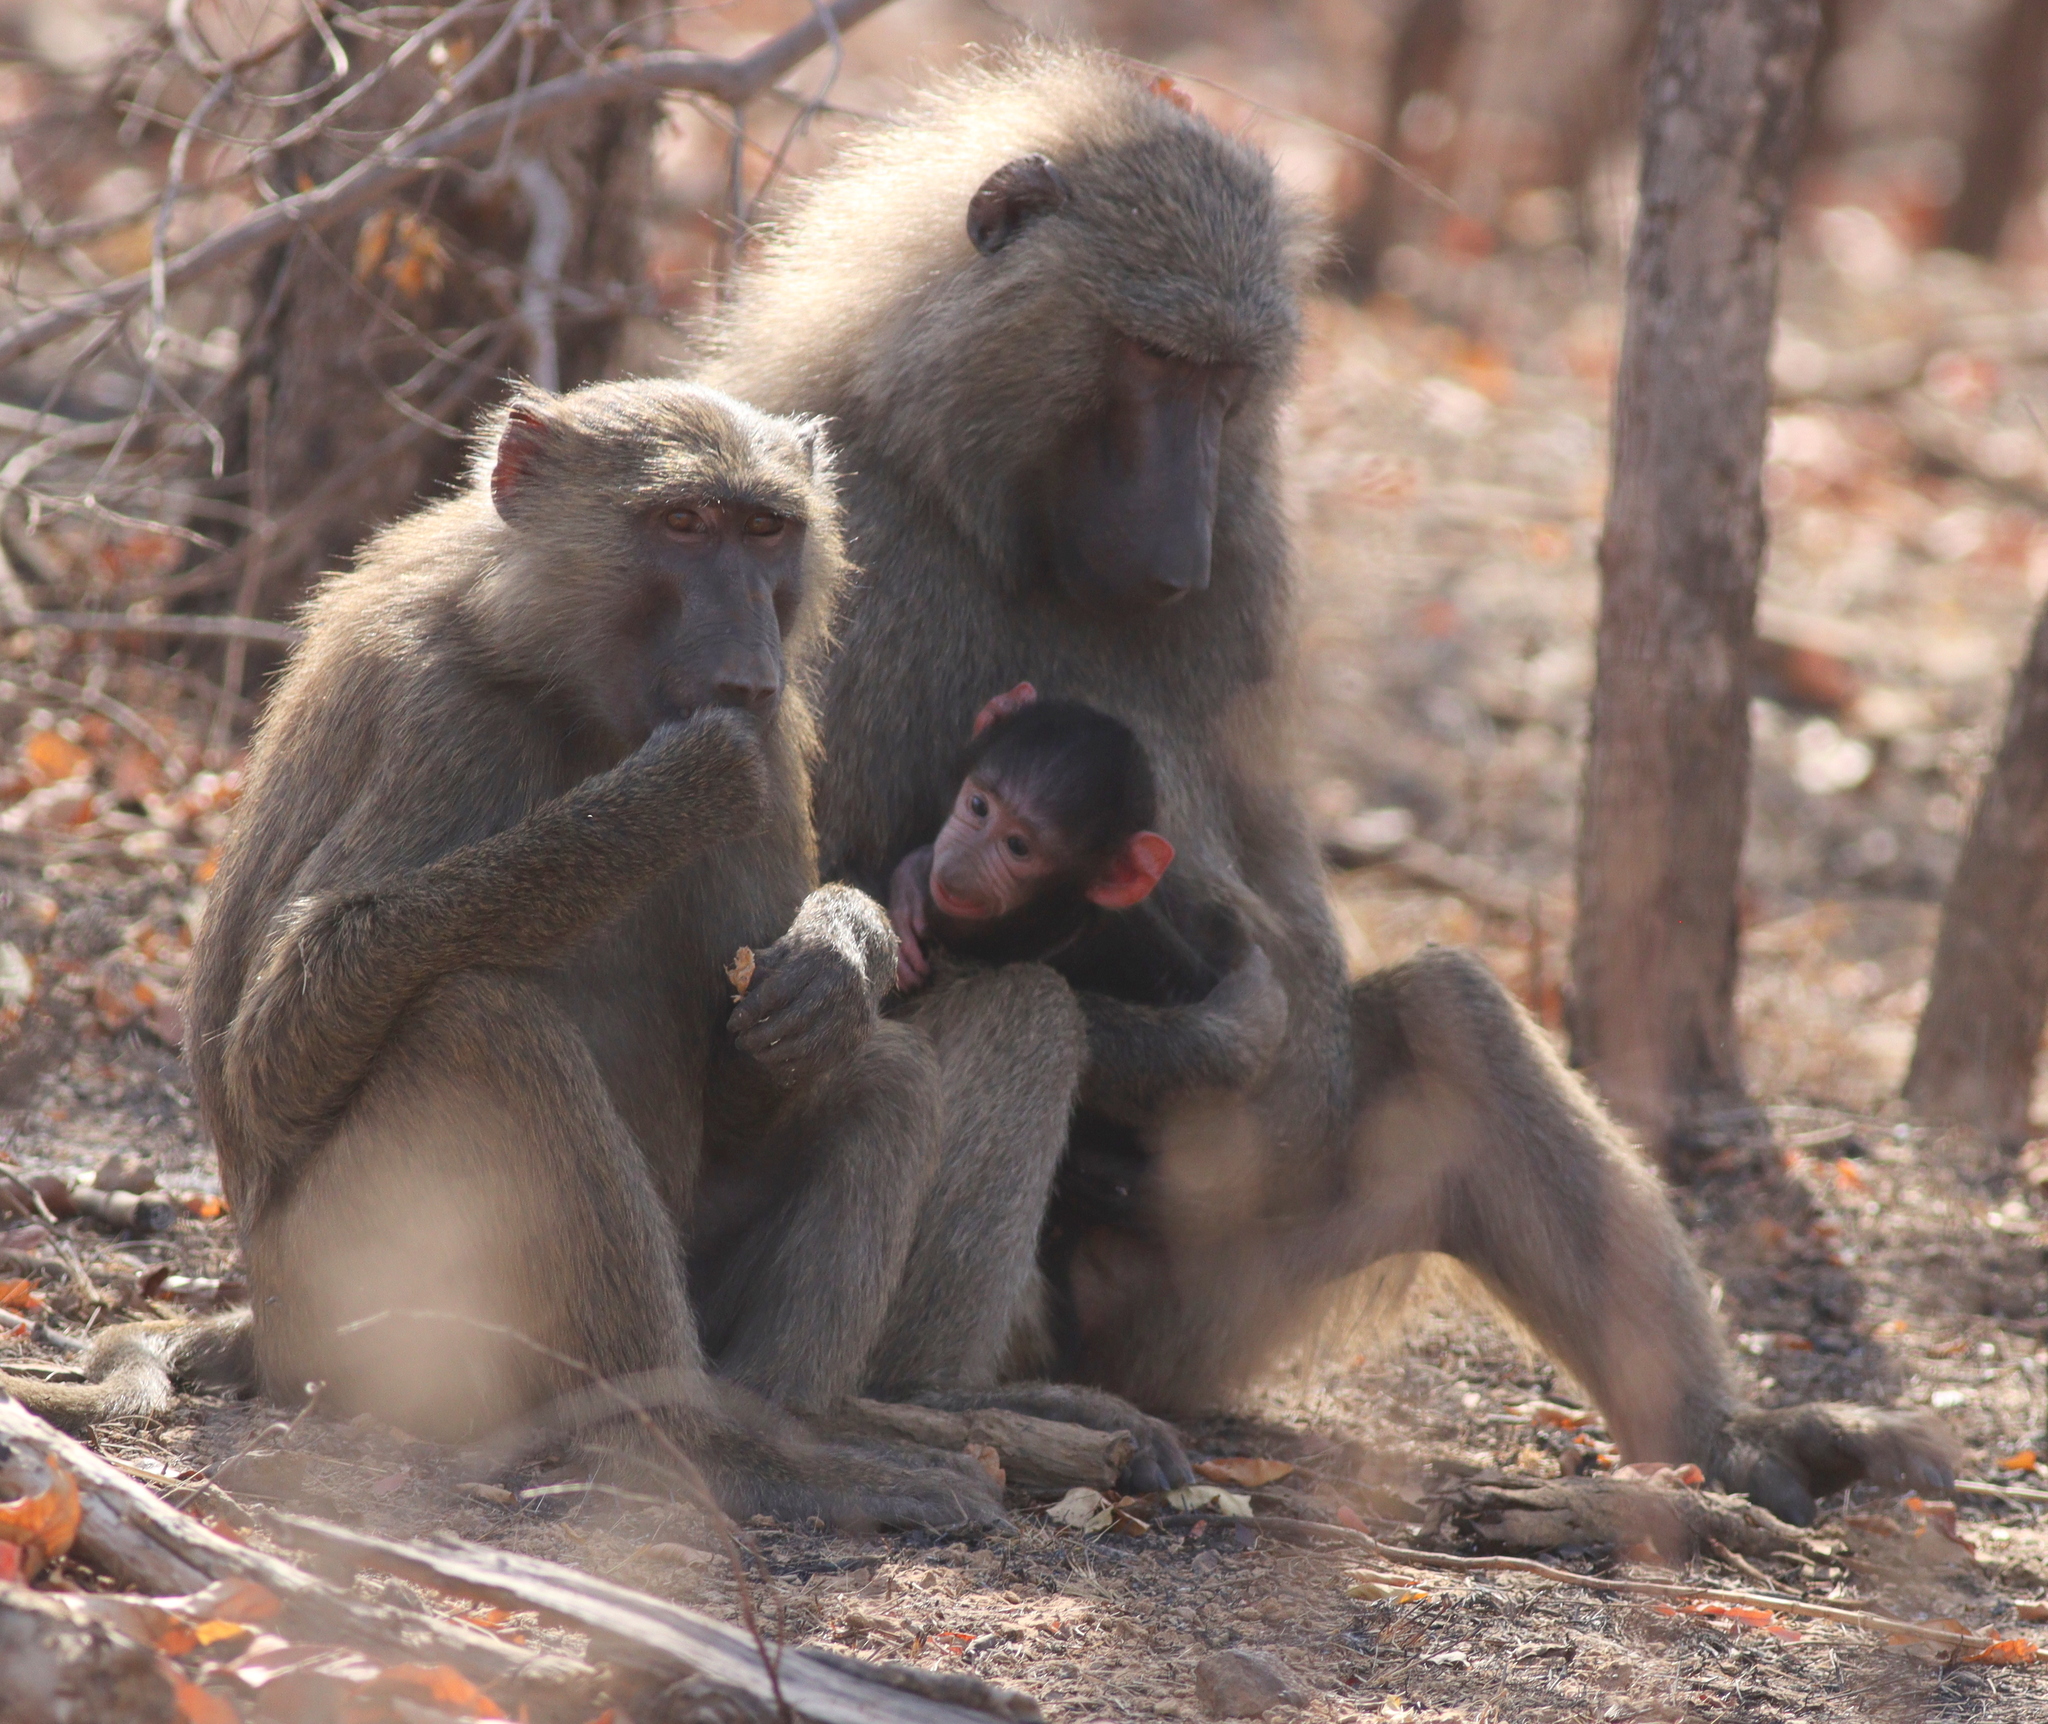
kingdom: Animalia
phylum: Chordata
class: Mammalia
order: Primates
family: Cercopithecidae
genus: Papio
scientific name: Papio anubis
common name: Olive baboon
